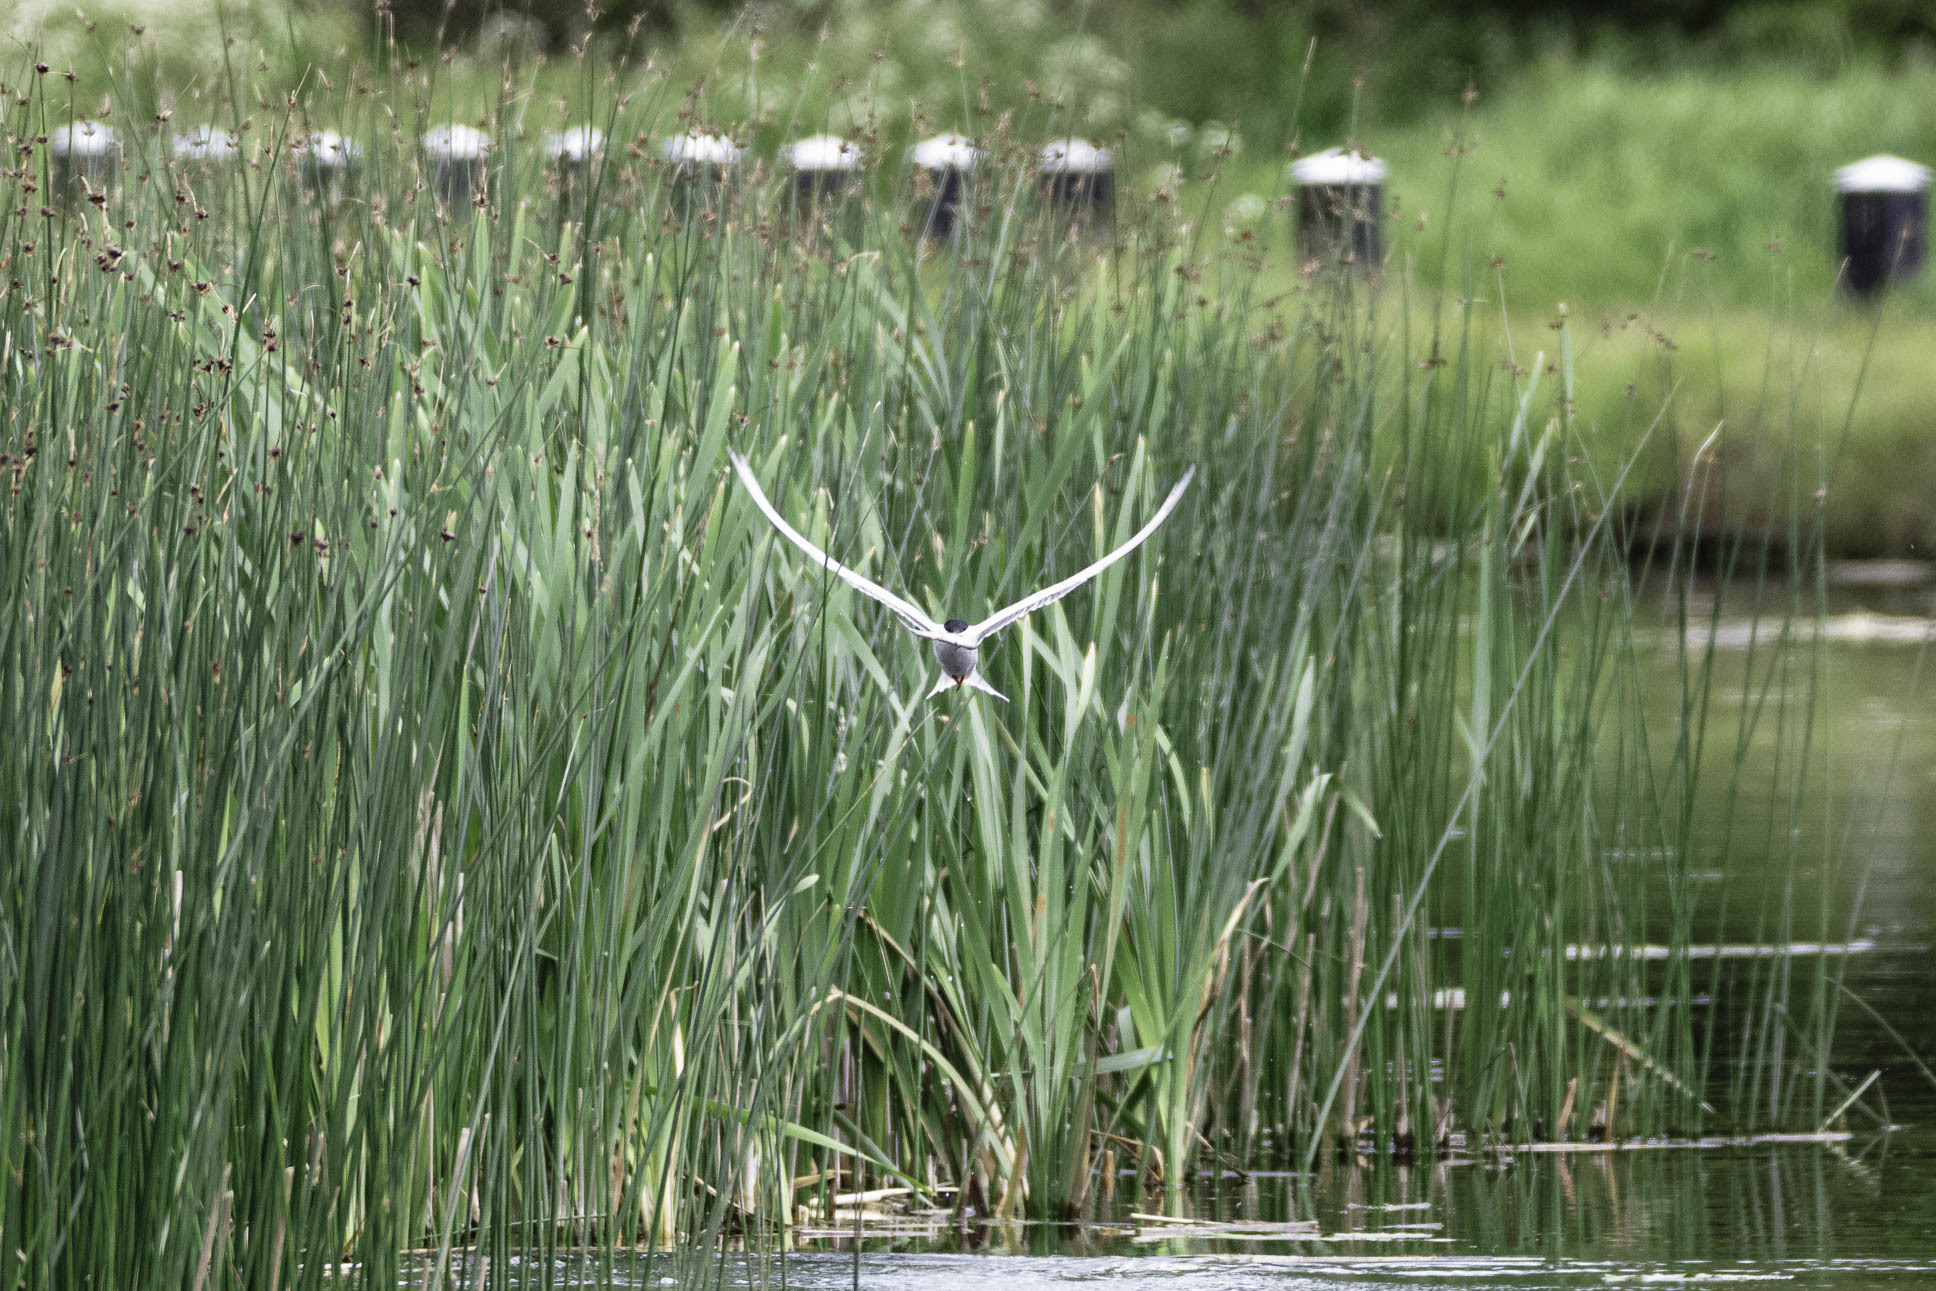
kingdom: Animalia
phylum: Chordata
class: Aves
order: Charadriiformes
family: Laridae
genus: Sterna
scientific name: Sterna hirundo
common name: Common tern
